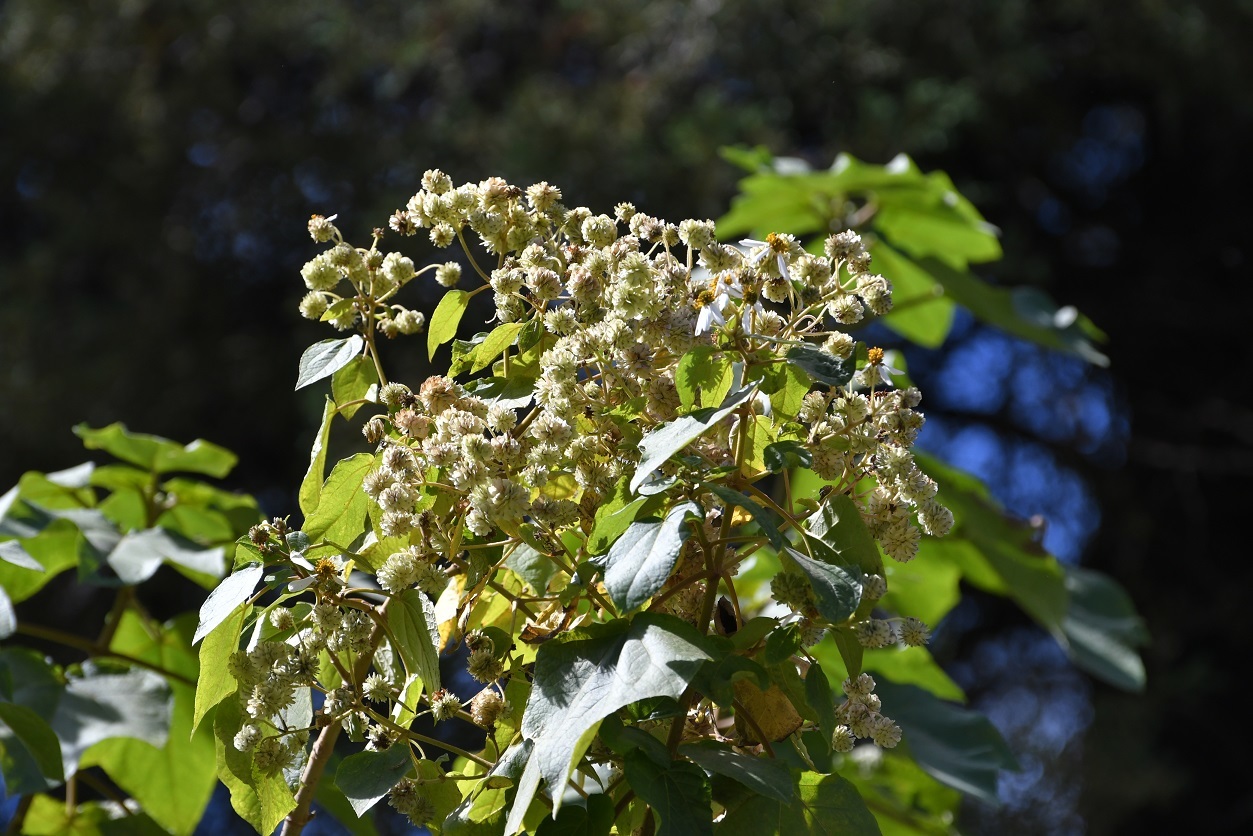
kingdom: Plantae
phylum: Tracheophyta
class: Magnoliopsida
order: Asterales
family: Asteraceae
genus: Montanoa
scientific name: Montanoa leucantha
